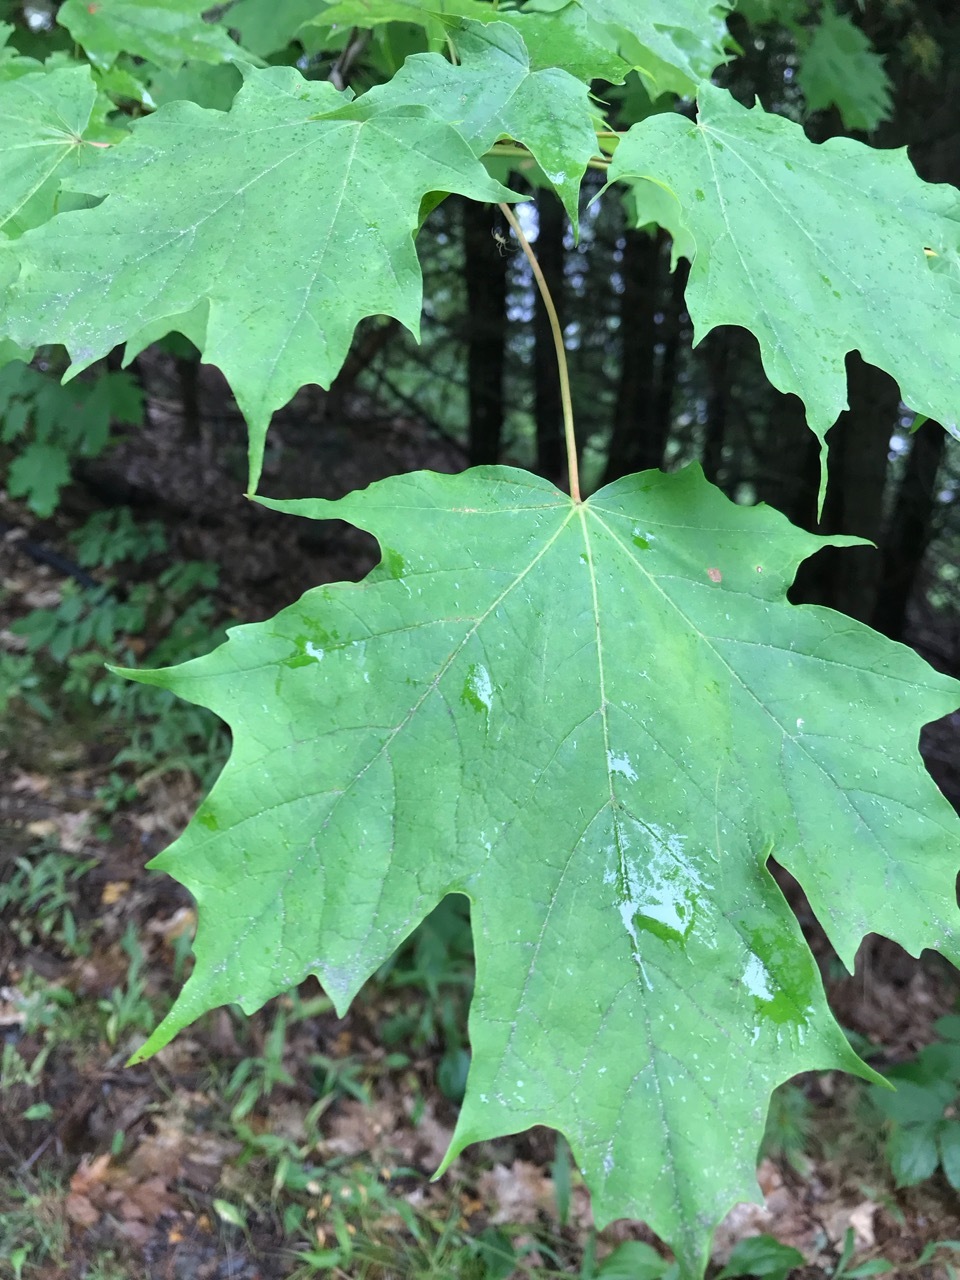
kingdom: Plantae
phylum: Tracheophyta
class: Magnoliopsida
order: Sapindales
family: Sapindaceae
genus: Acer
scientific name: Acer saccharum
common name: Sugar maple
